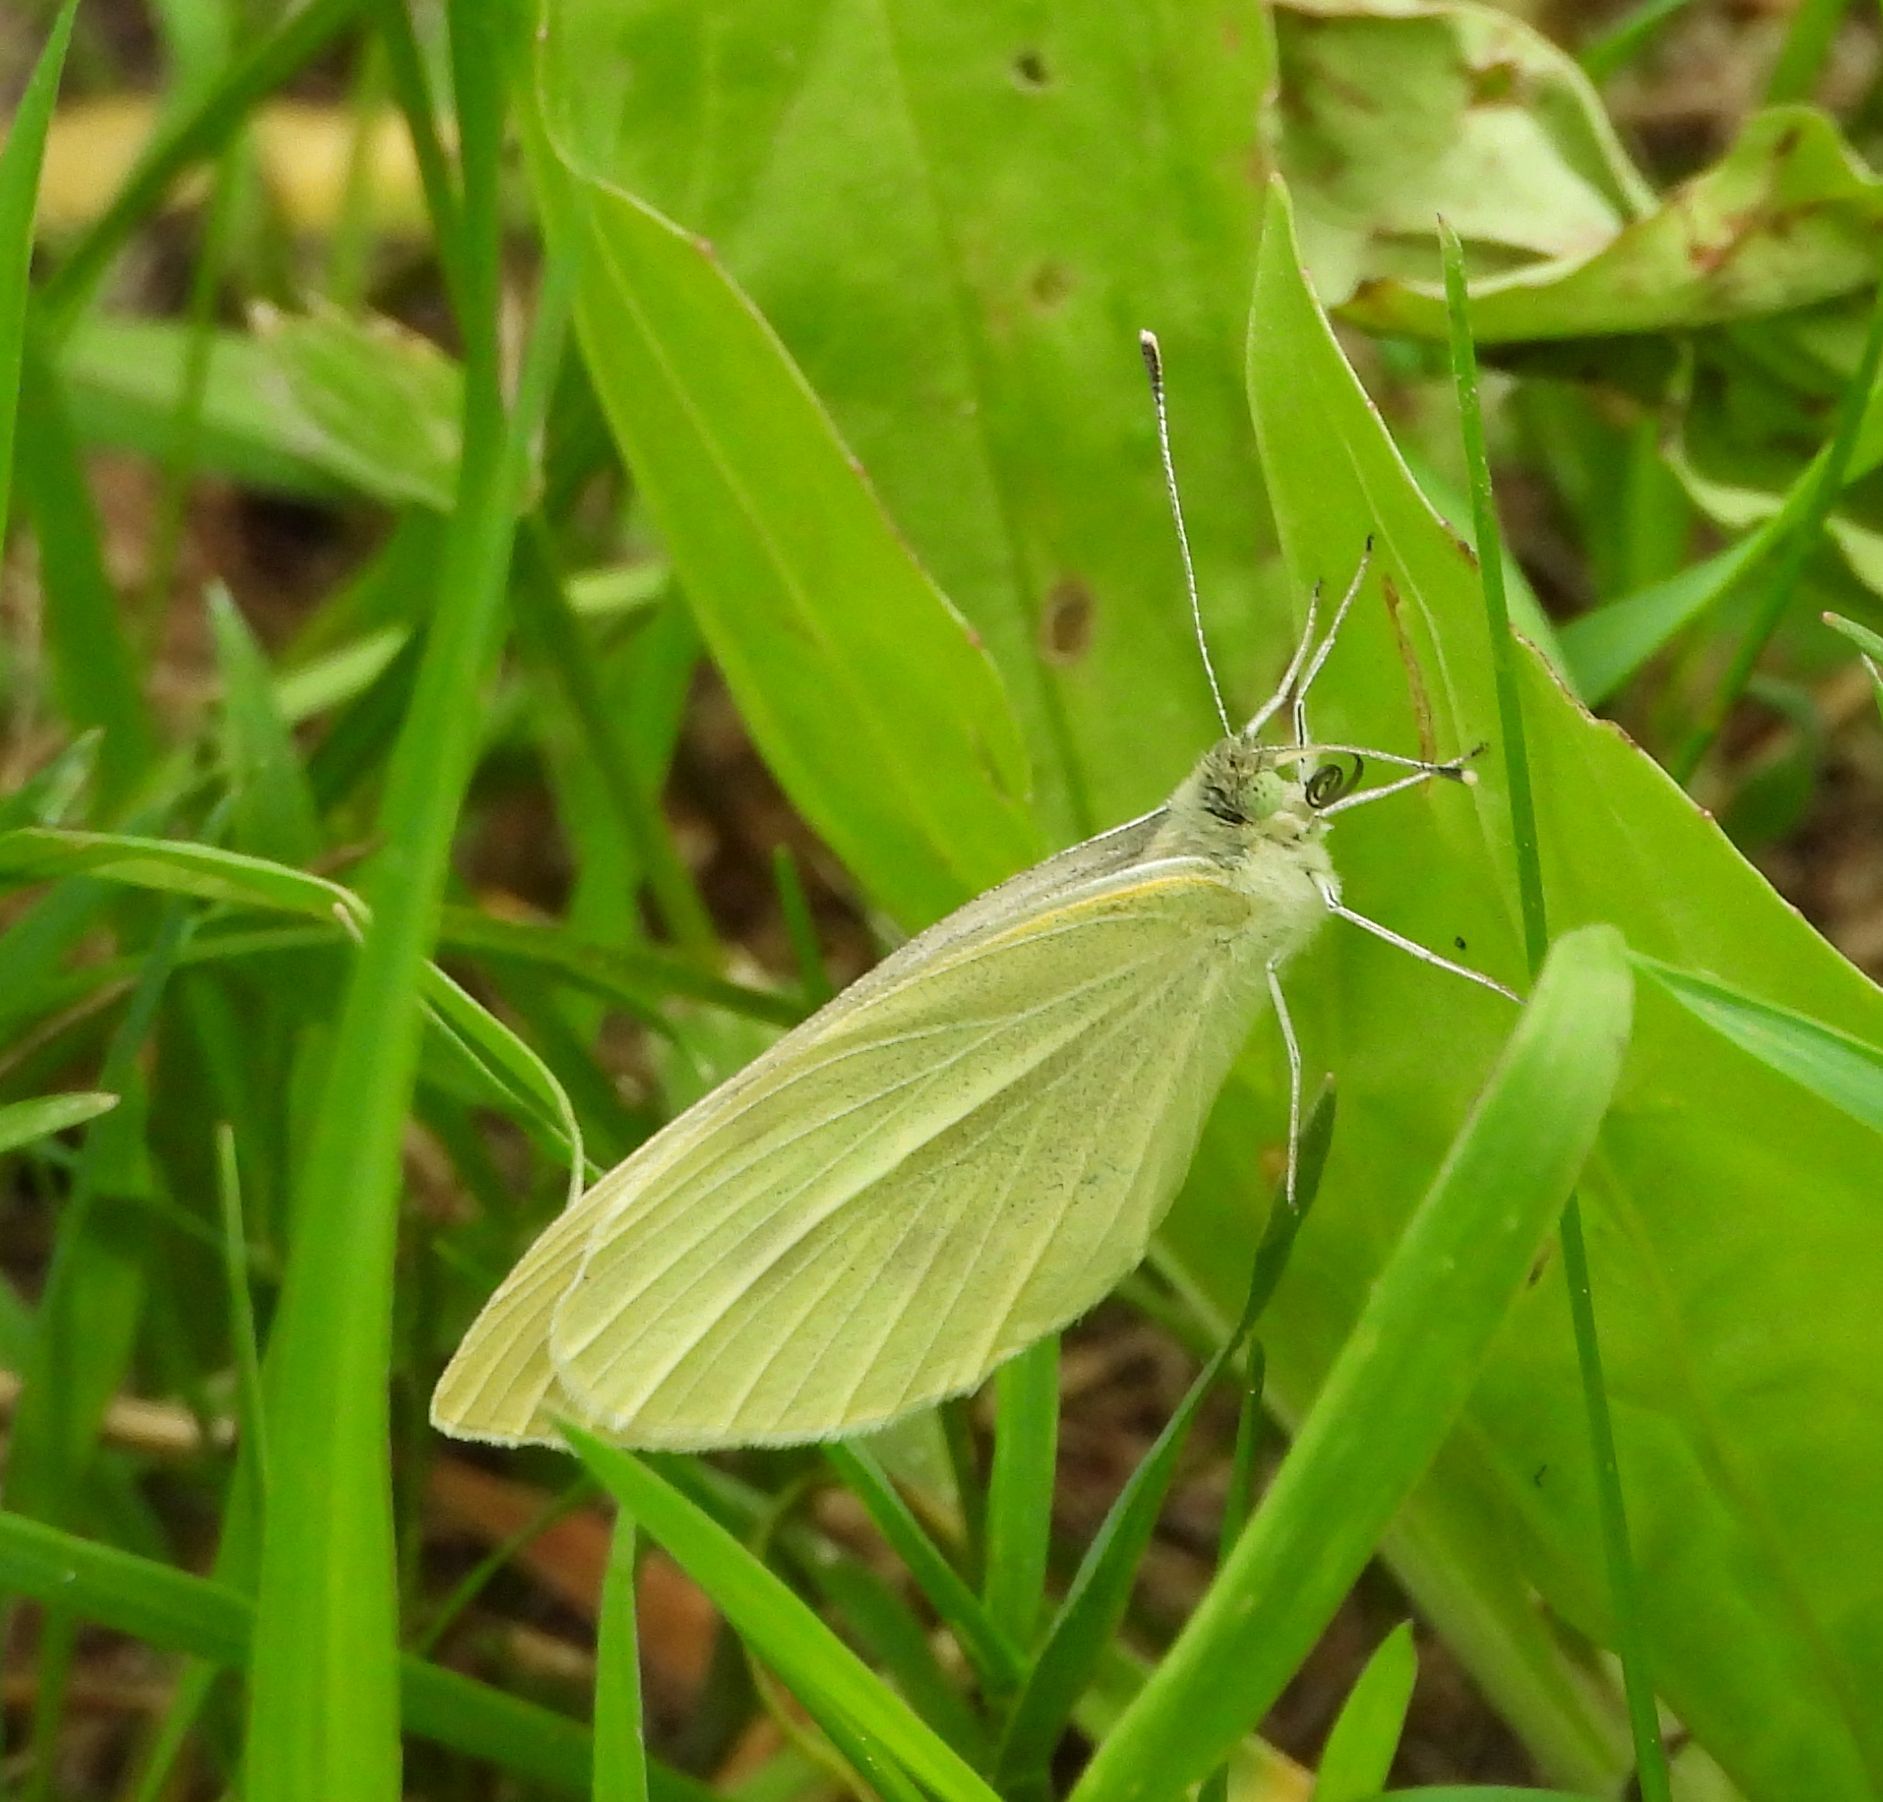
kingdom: Animalia
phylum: Arthropoda
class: Insecta
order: Lepidoptera
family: Pieridae
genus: Pieris
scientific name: Pieris rapae
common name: Small white
